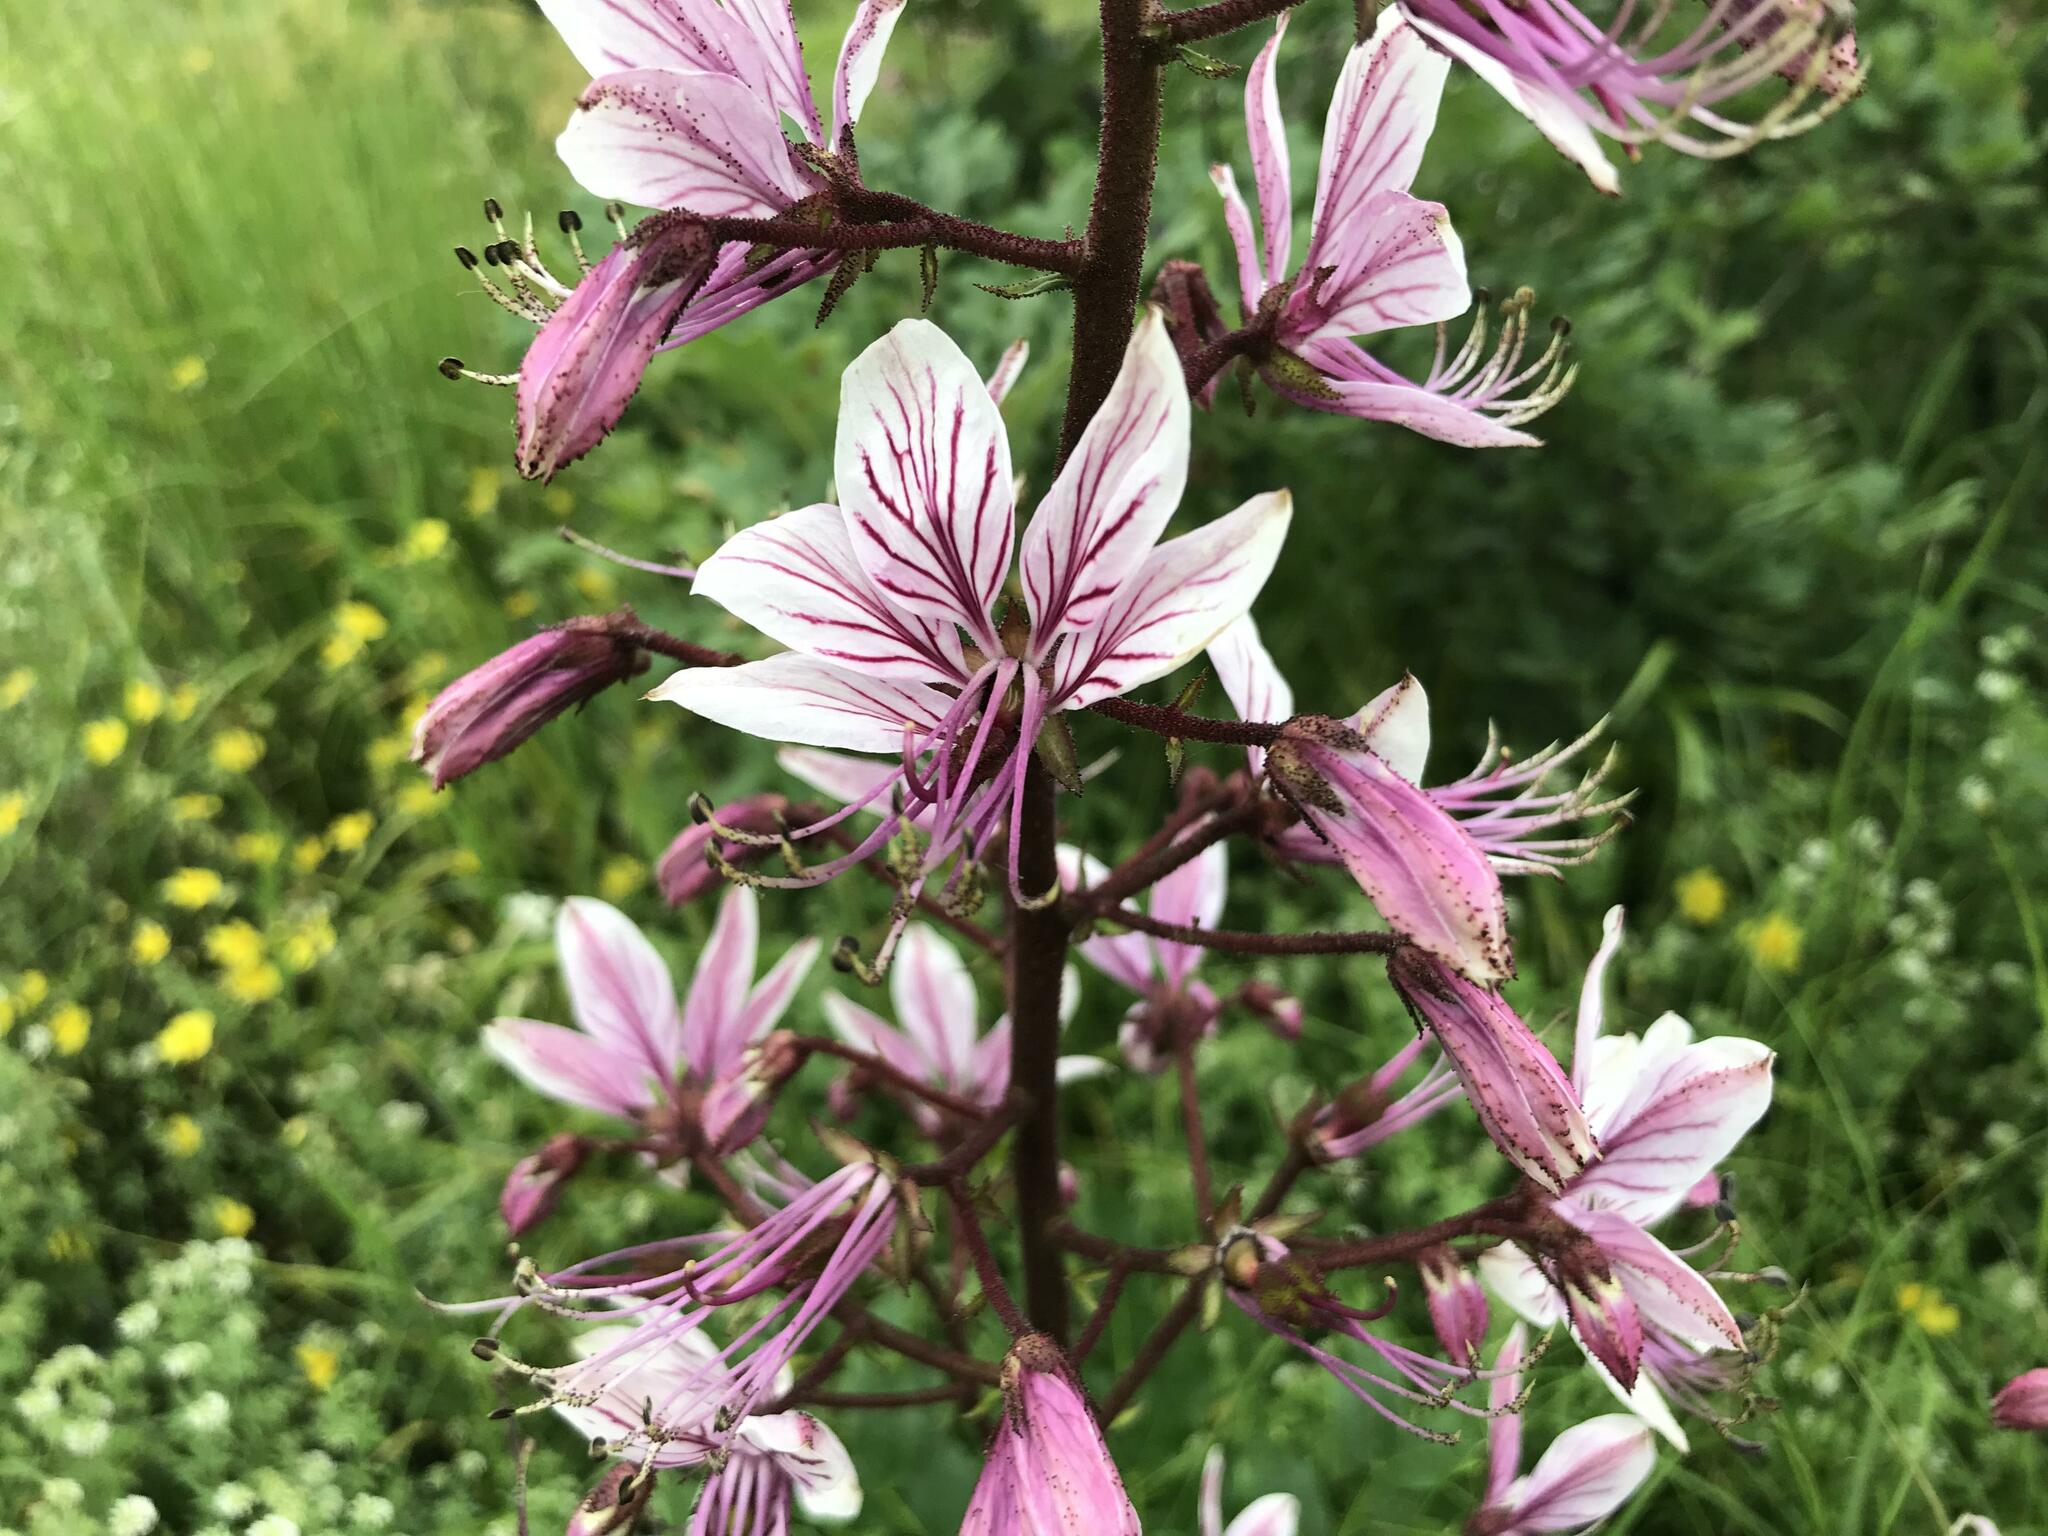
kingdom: Plantae
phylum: Tracheophyta
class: Magnoliopsida
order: Sapindales
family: Rutaceae
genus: Dictamnus
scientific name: Dictamnus albus
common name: Gasplant
